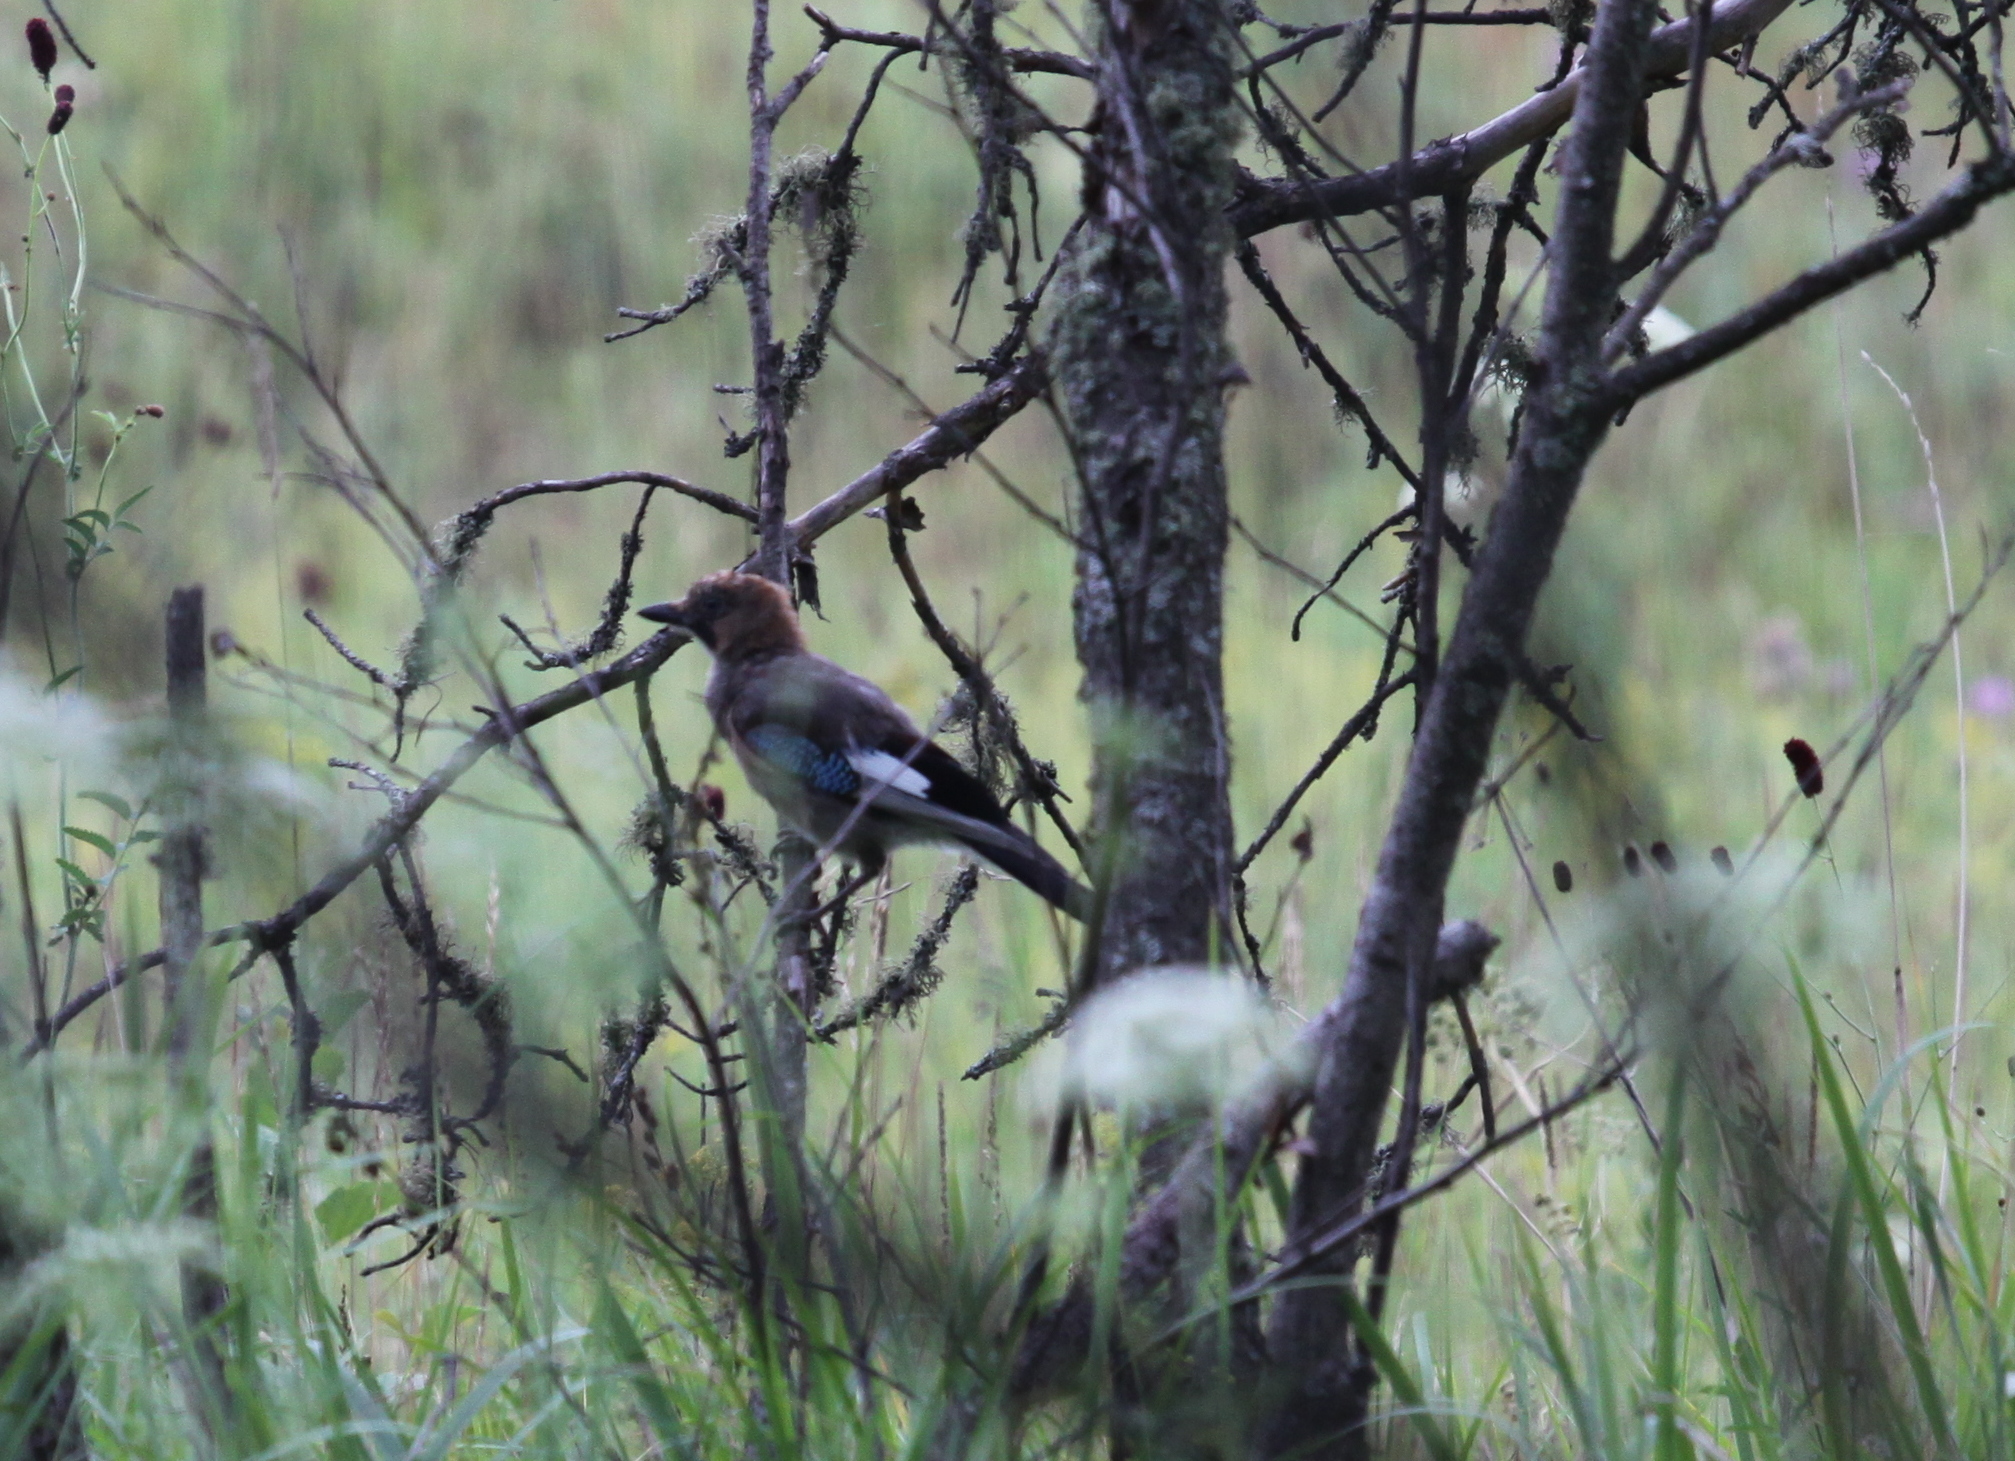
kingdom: Animalia
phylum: Chordata
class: Aves
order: Passeriformes
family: Corvidae
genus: Garrulus
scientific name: Garrulus glandarius
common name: Eurasian jay
